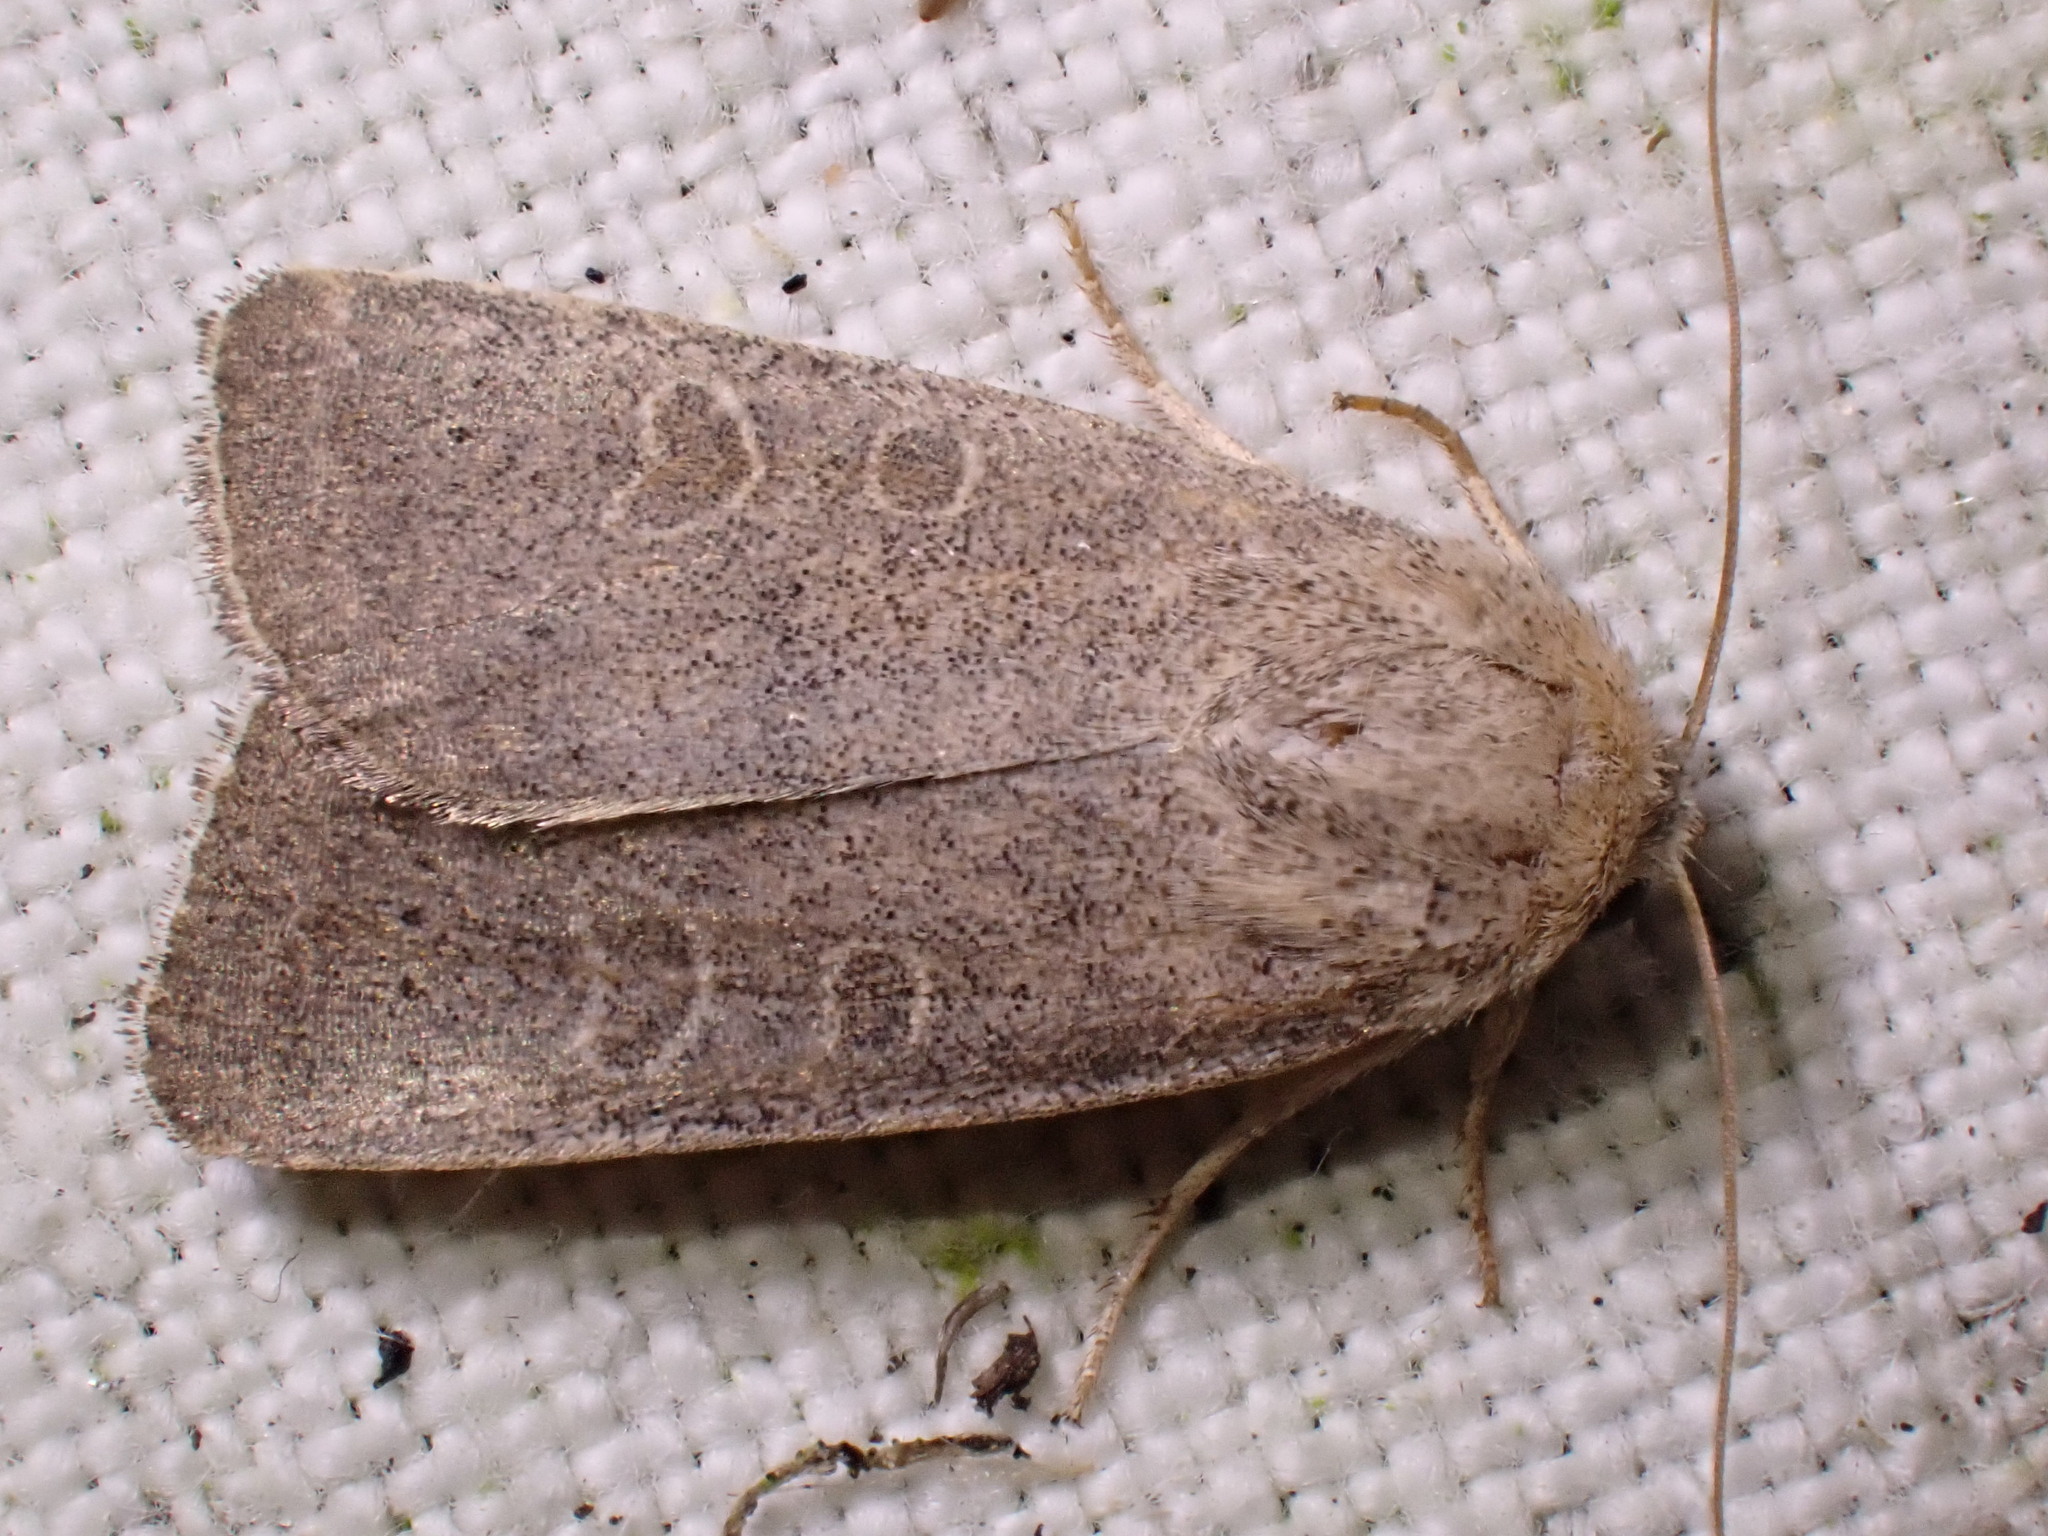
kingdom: Animalia
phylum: Arthropoda
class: Insecta
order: Lepidoptera
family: Noctuidae
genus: Hoplodrina
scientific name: Hoplodrina ambigua
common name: Vine's rustic
